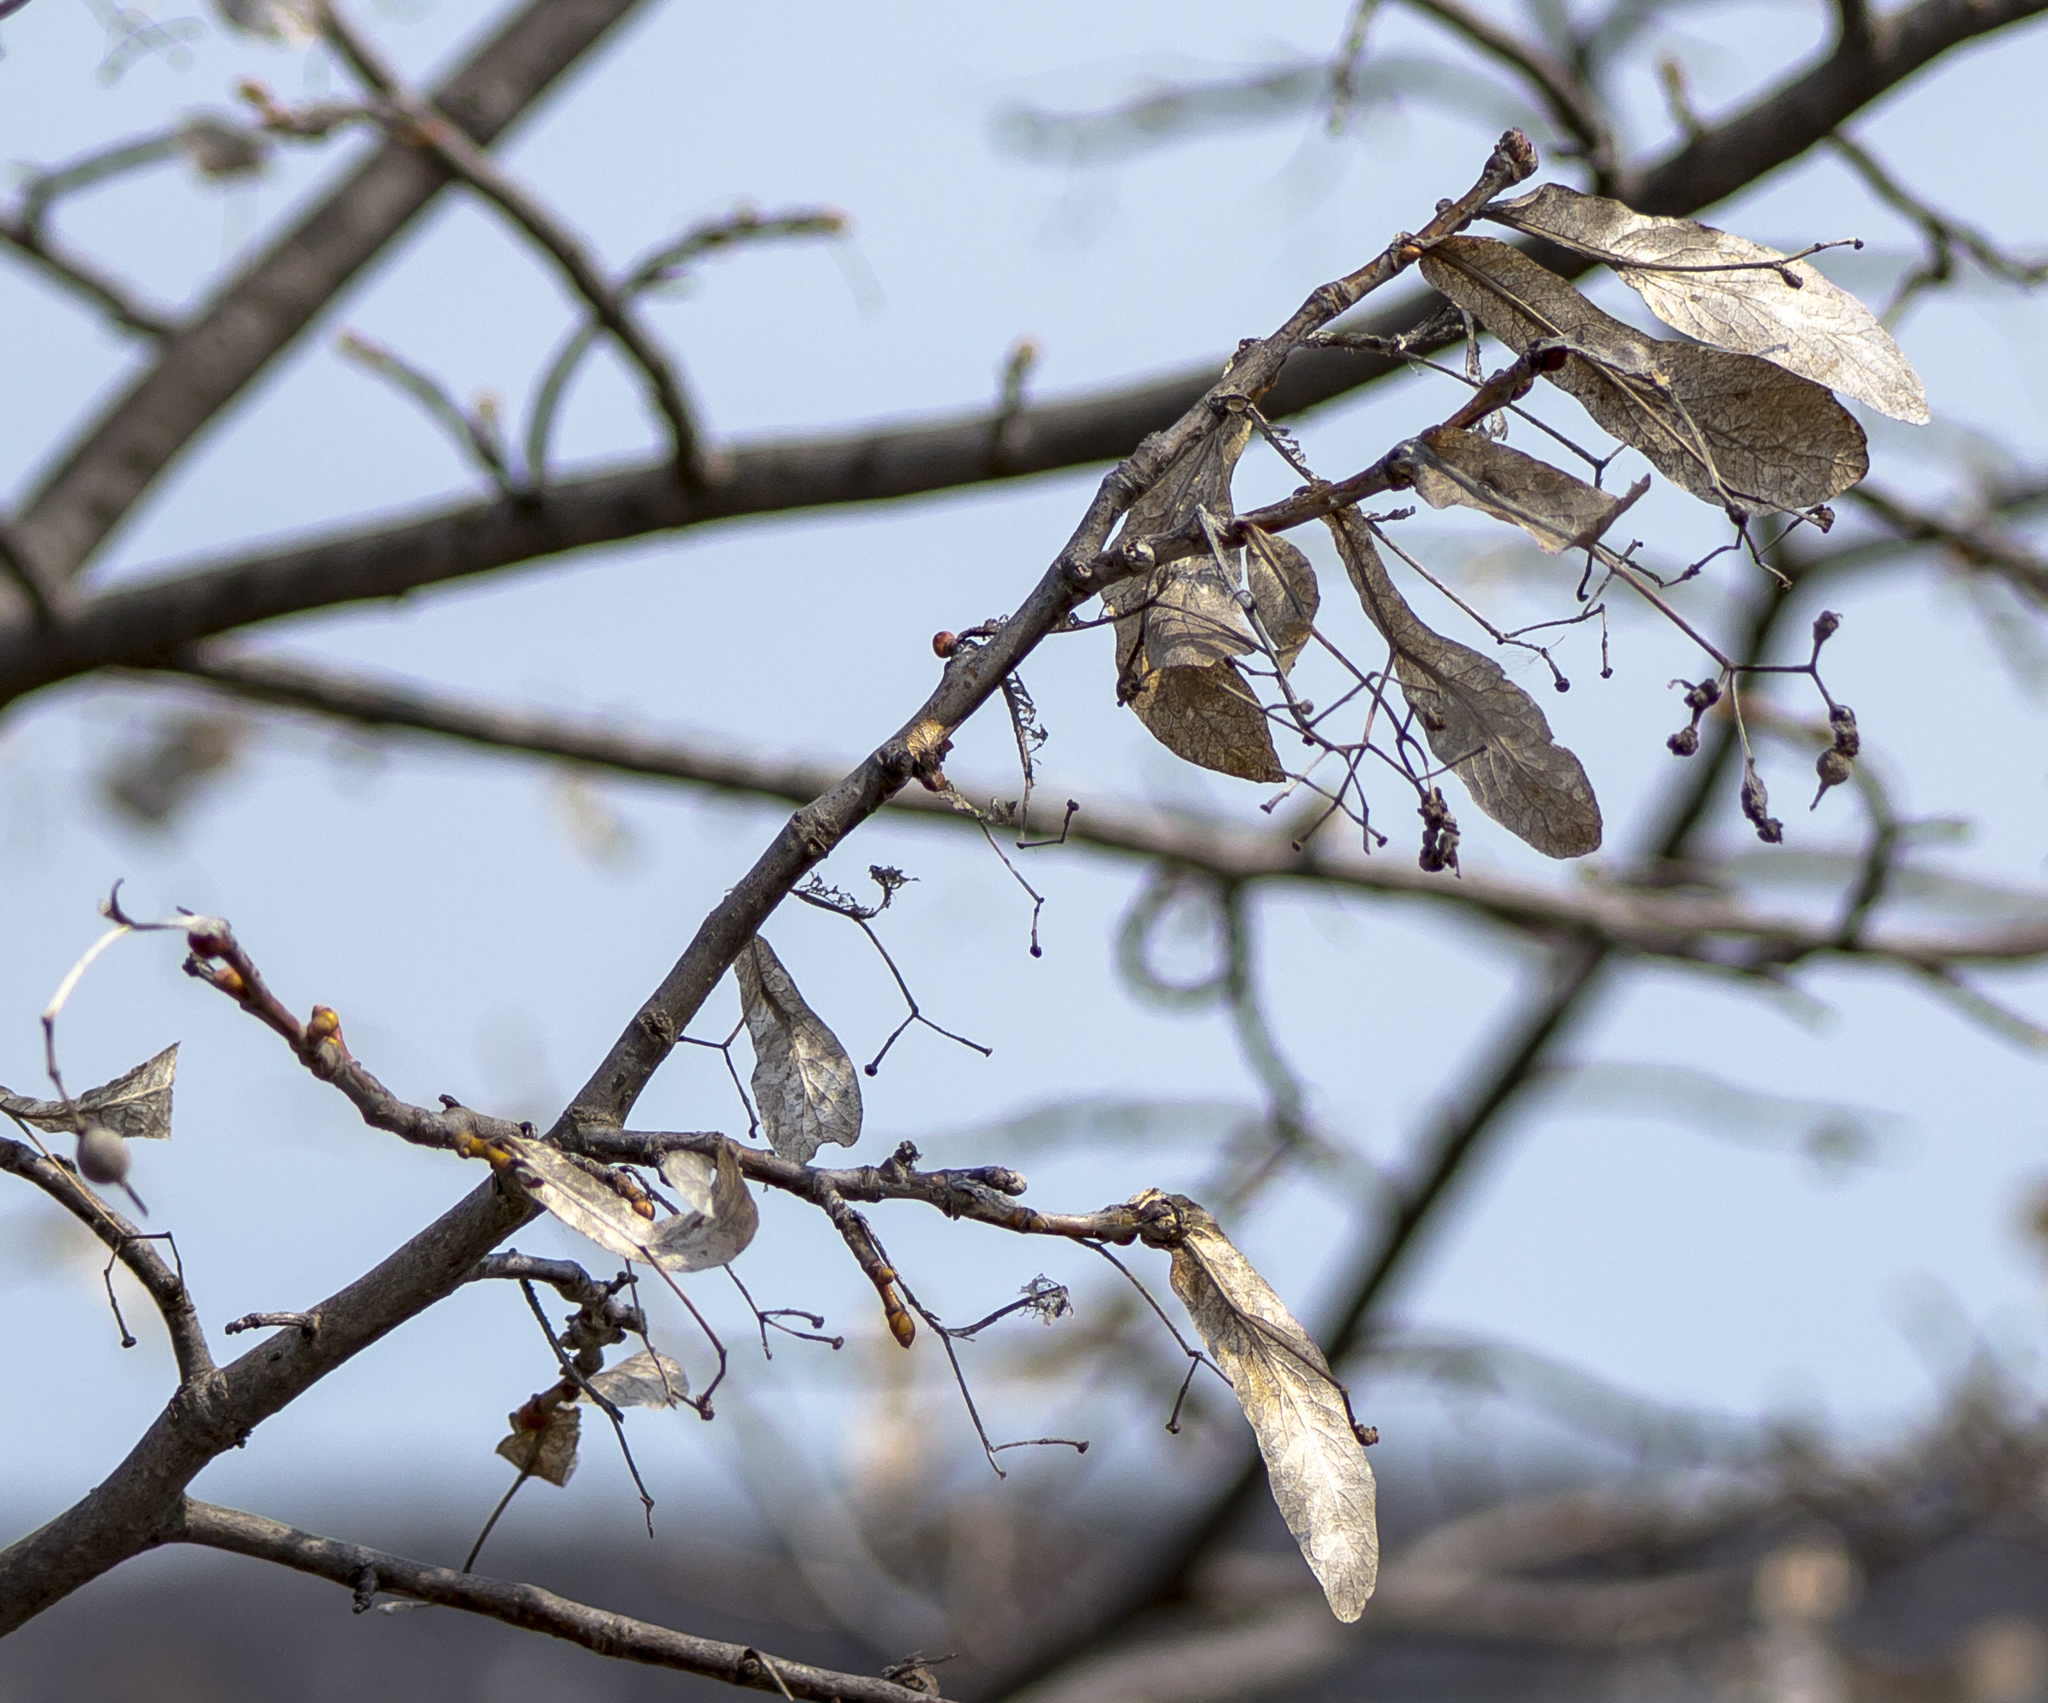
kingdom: Plantae
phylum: Tracheophyta
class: Magnoliopsida
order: Malvales
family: Malvaceae
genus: Tilia
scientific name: Tilia americana
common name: Basswood
